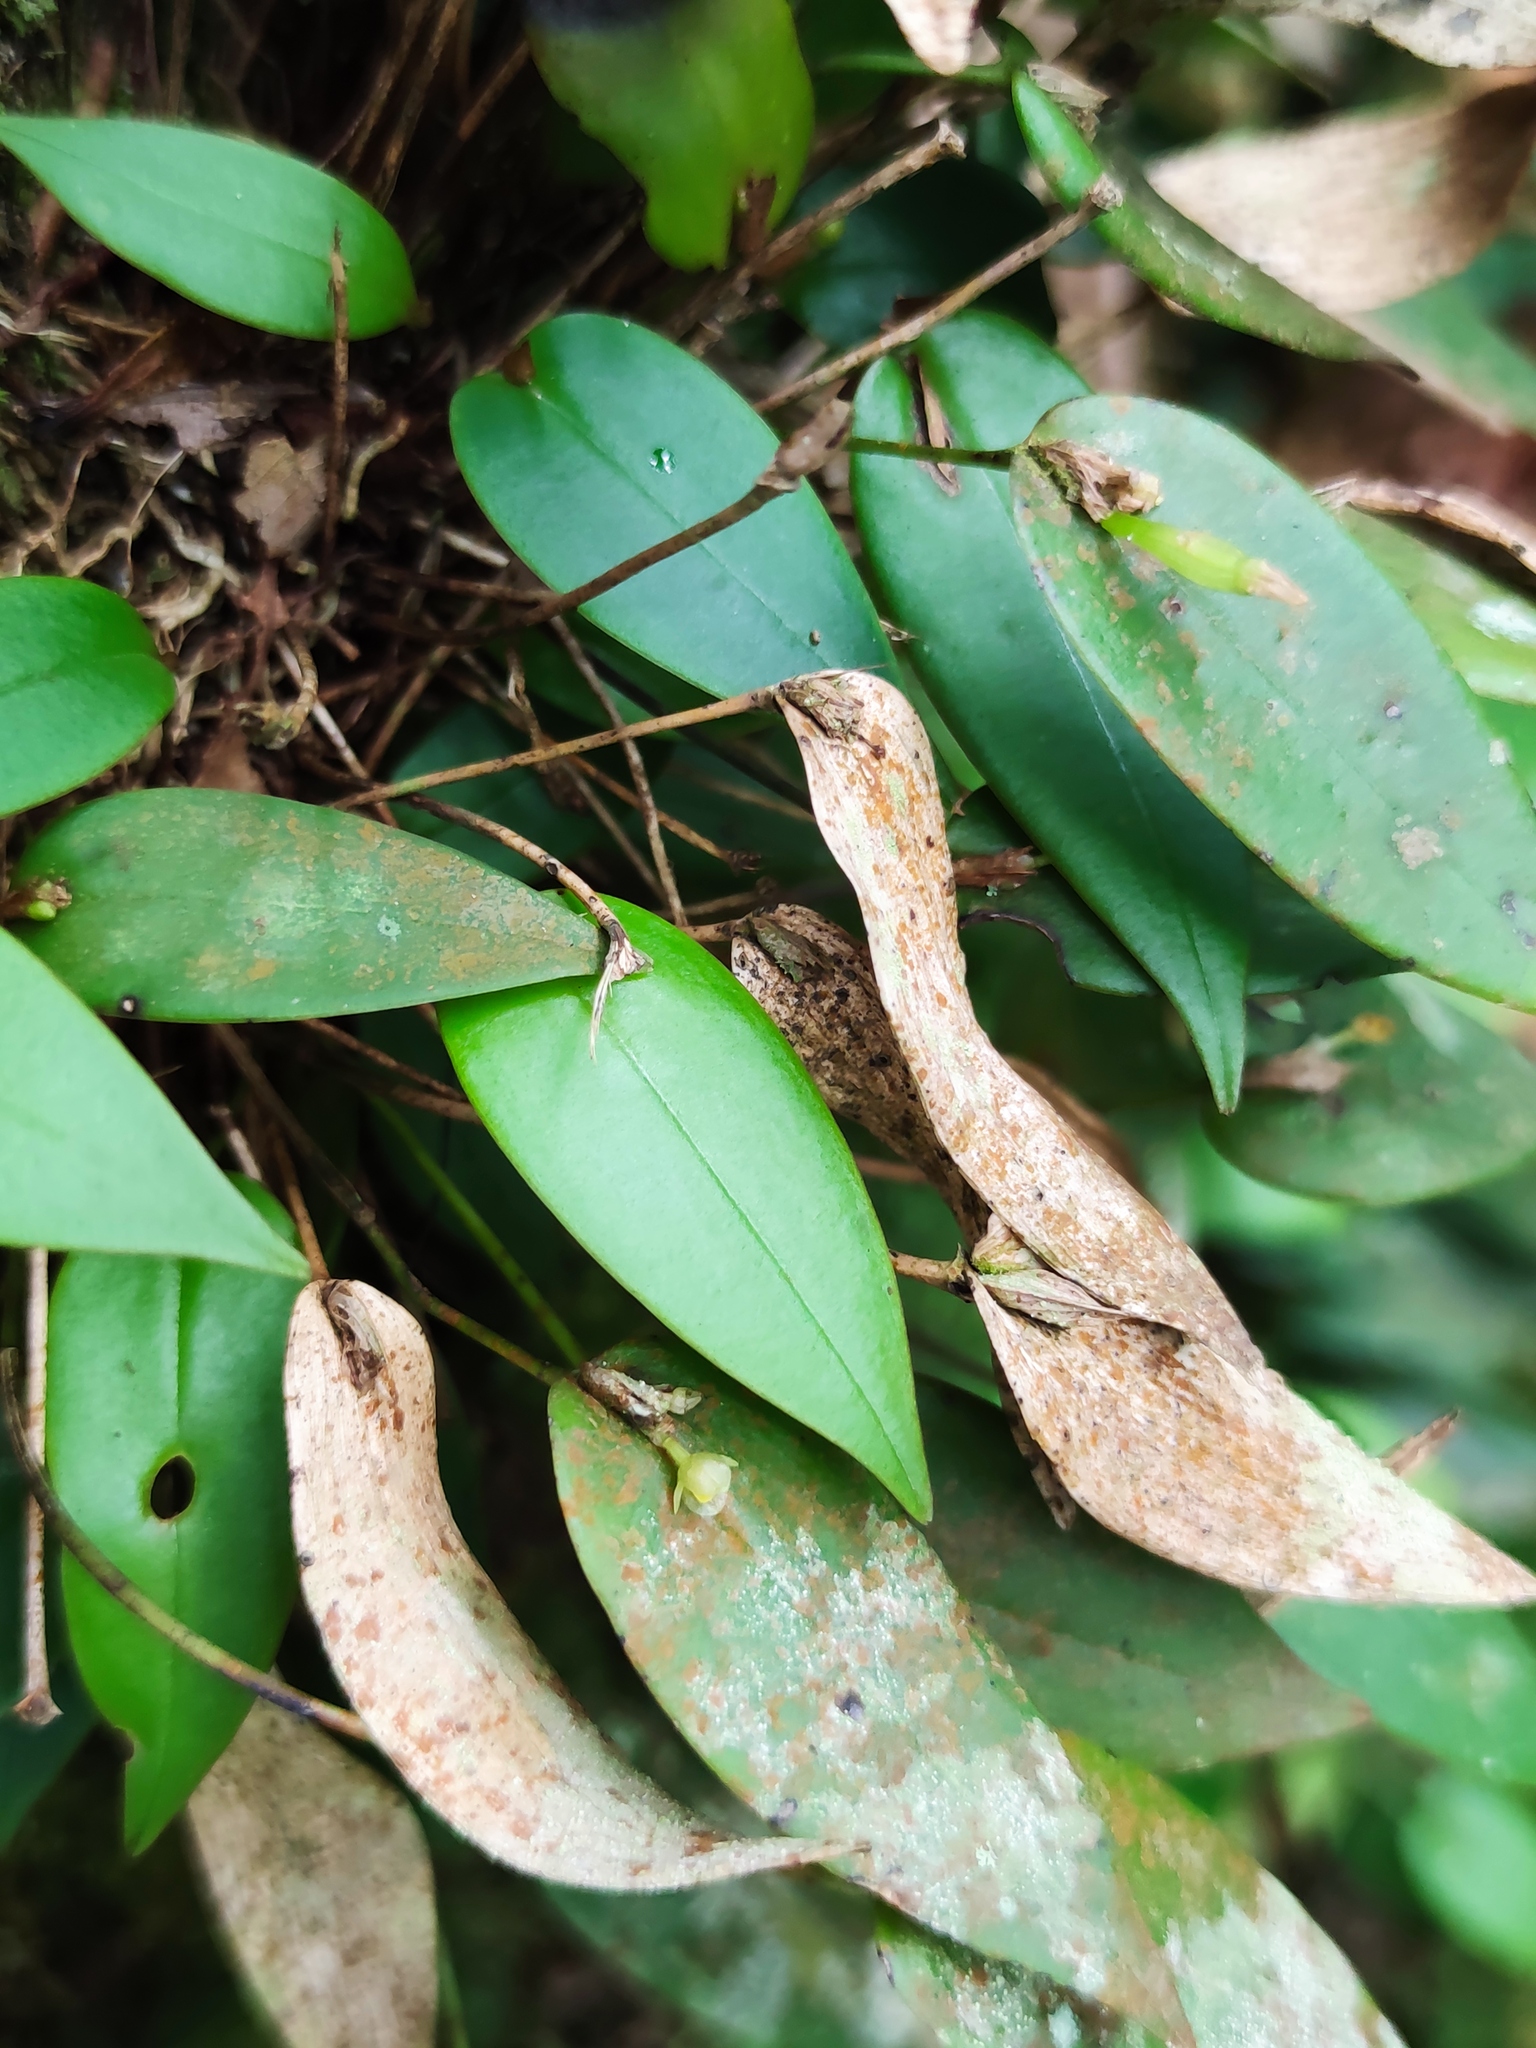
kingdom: Plantae
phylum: Tracheophyta
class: Liliopsida
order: Asparagales
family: Orchidaceae
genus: Pleurothallis
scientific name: Pleurothallis correllii
